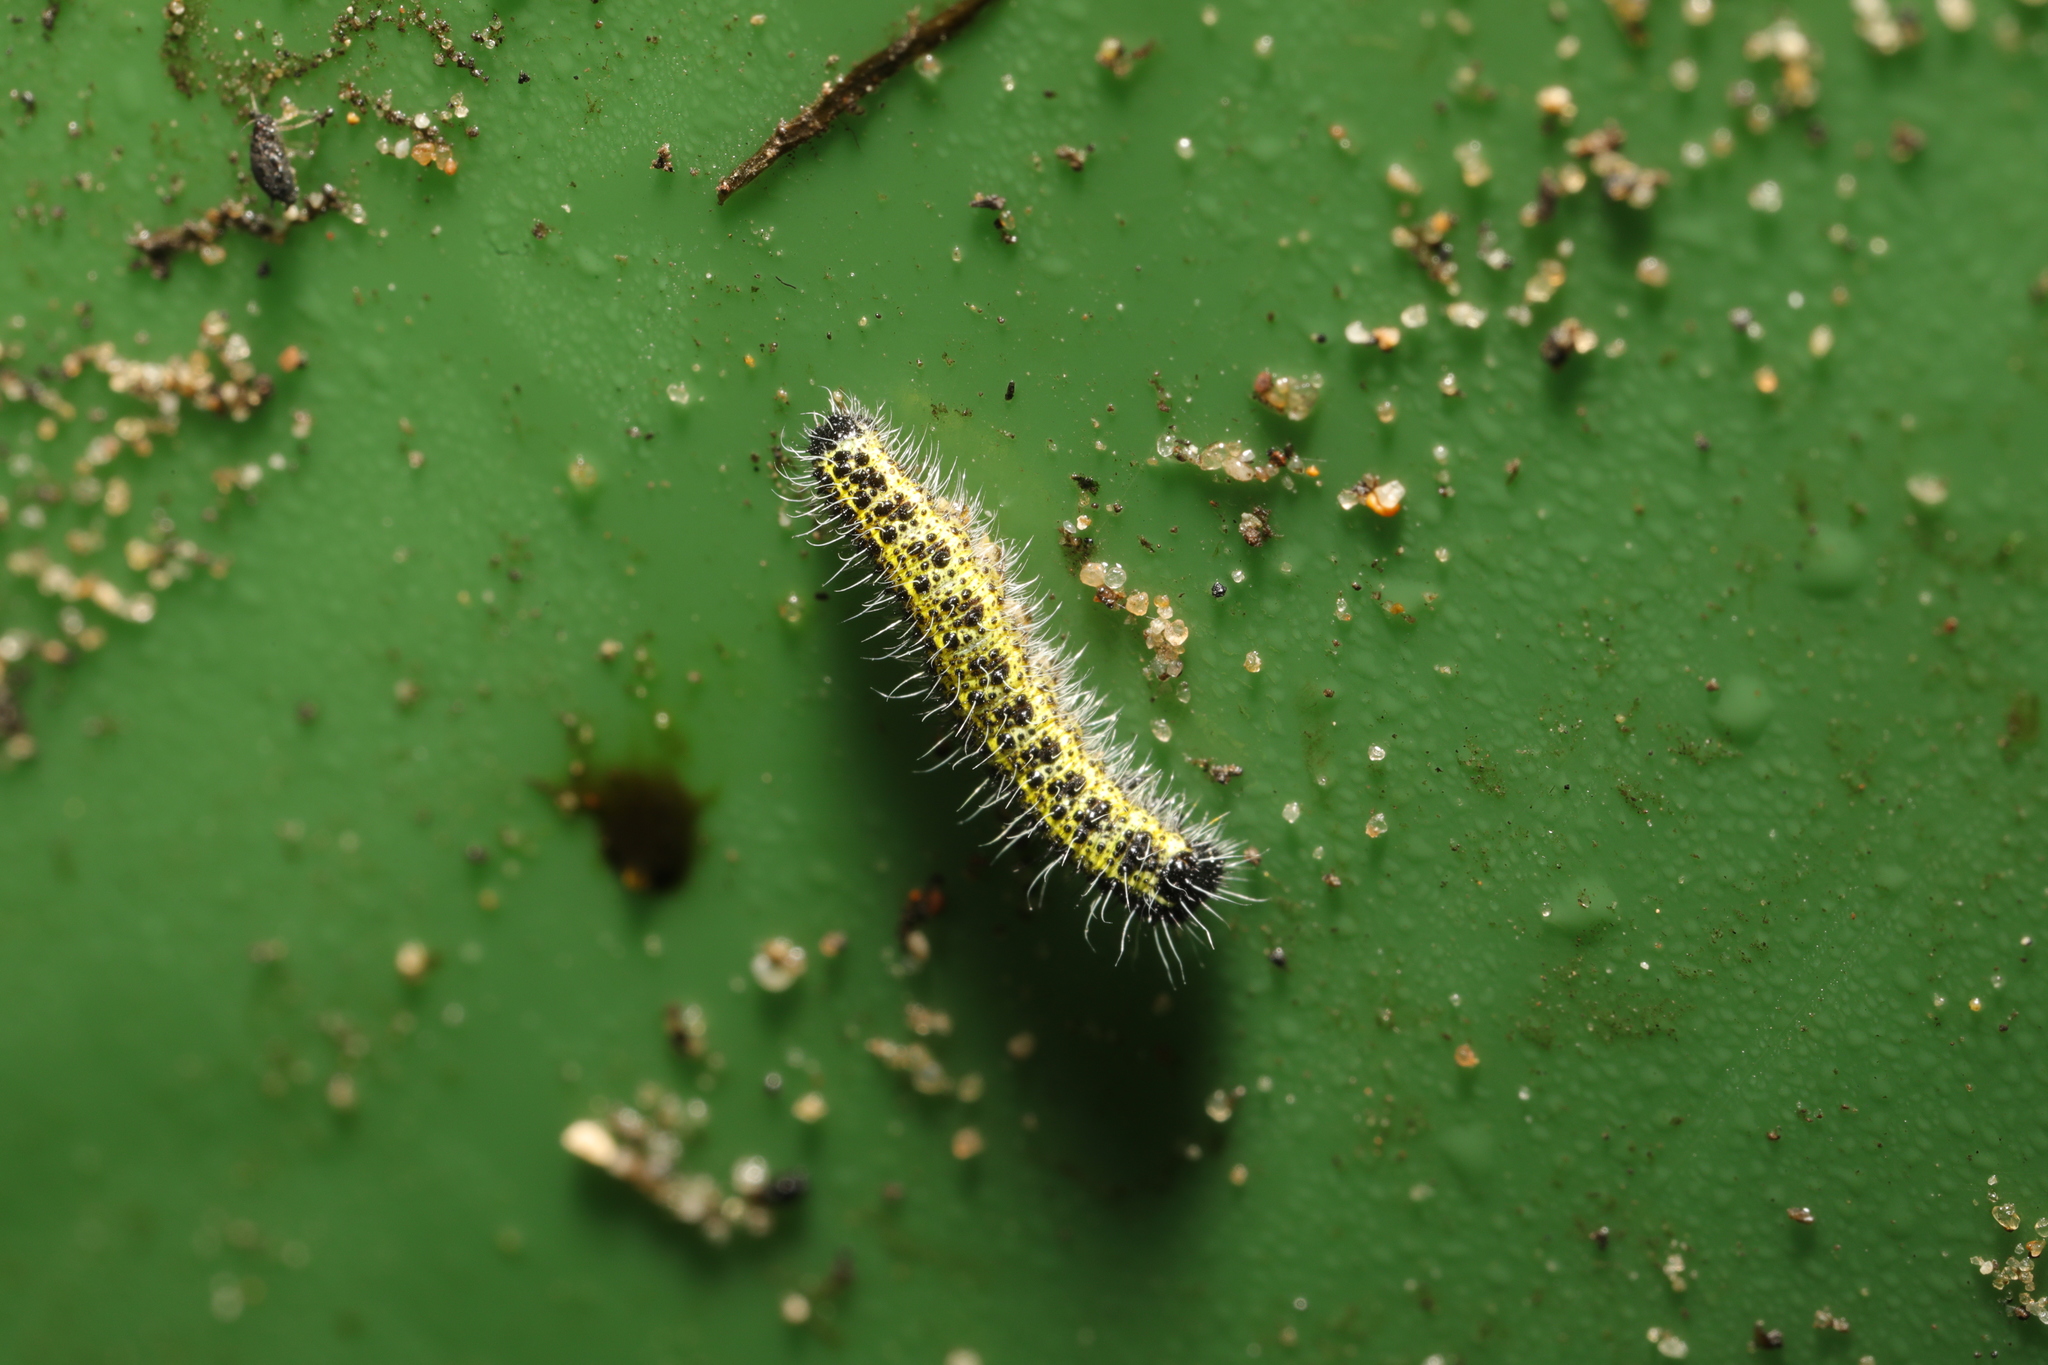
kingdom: Animalia
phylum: Arthropoda
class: Insecta
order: Lepidoptera
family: Pieridae
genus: Pieris
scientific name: Pieris brassicae
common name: Large white
